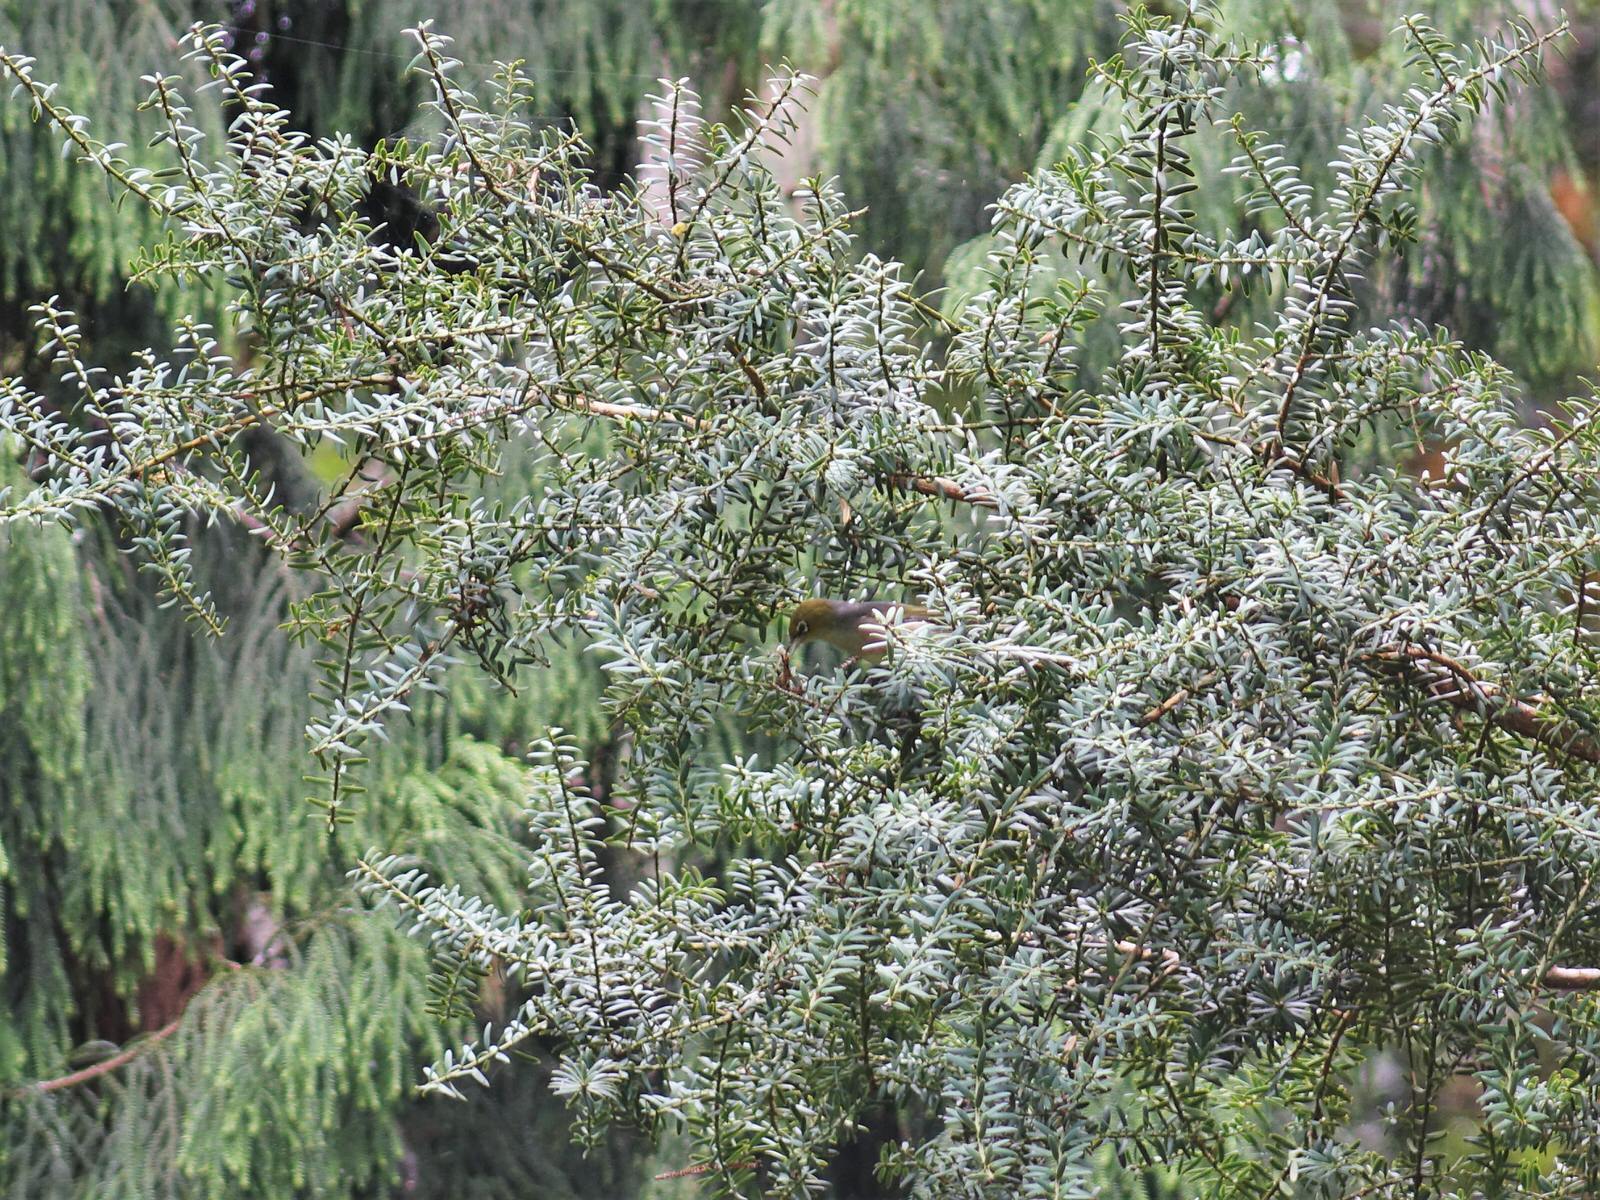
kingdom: Animalia
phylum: Chordata
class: Aves
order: Passeriformes
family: Zosteropidae
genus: Zosterops
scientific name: Zosterops lateralis
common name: Silvereye
